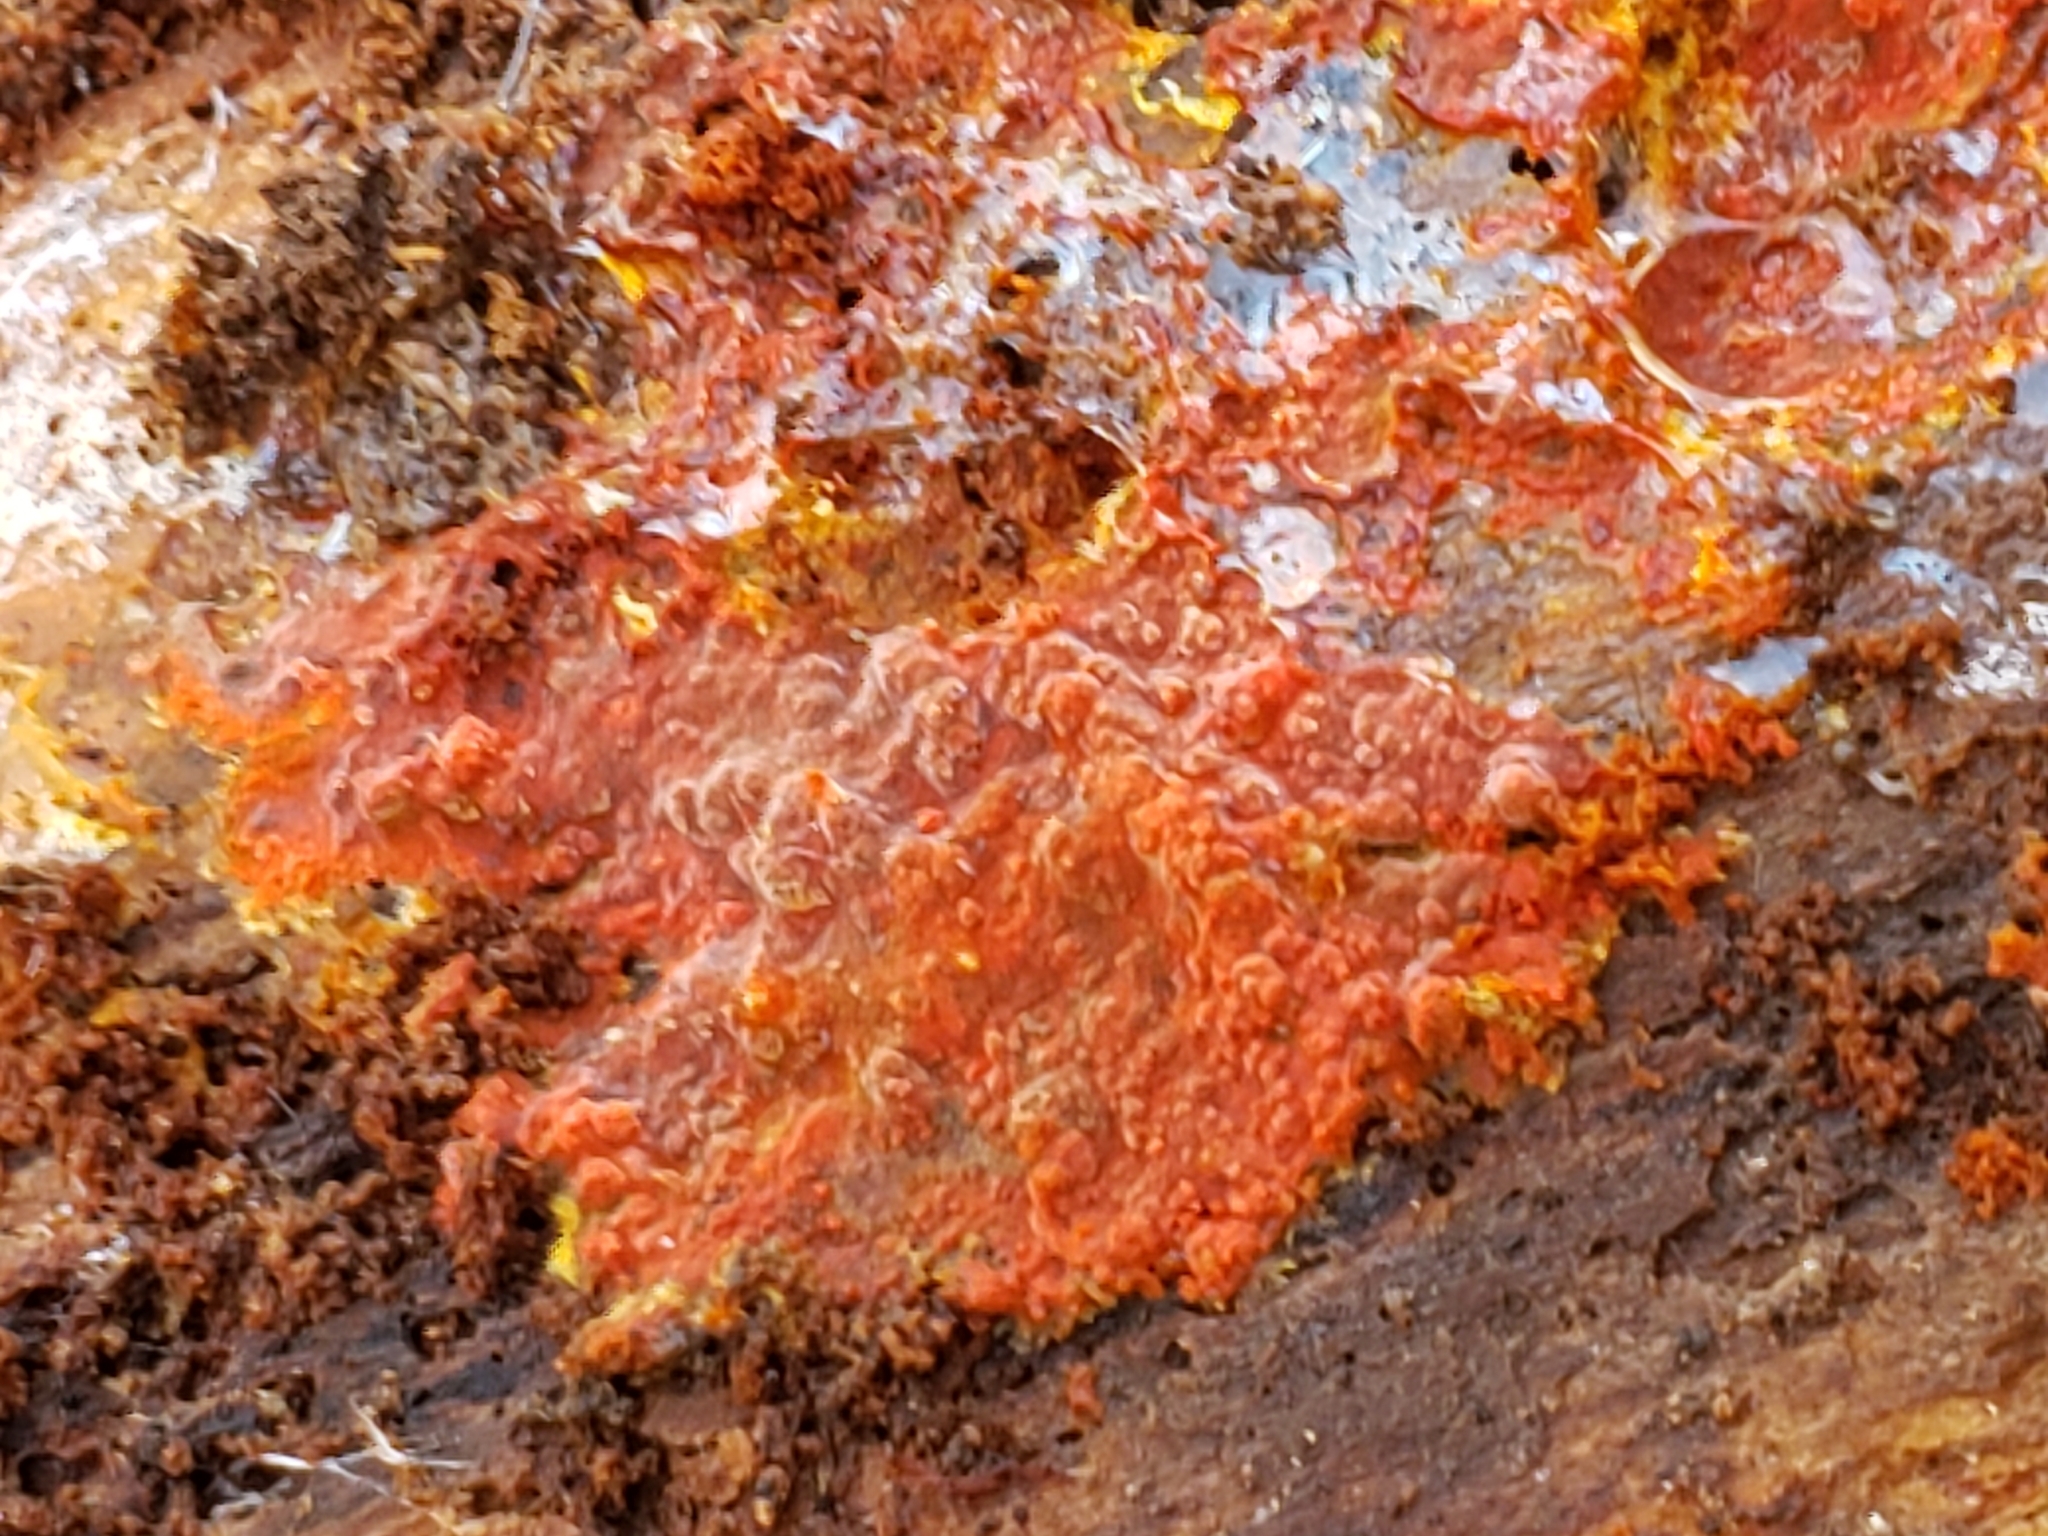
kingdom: Fungi
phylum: Basidiomycota
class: Agaricomycetes
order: Polyporales
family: Meruliaceae
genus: Phlebia
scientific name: Phlebia coccineofulva
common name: Scarlet waxcrust
